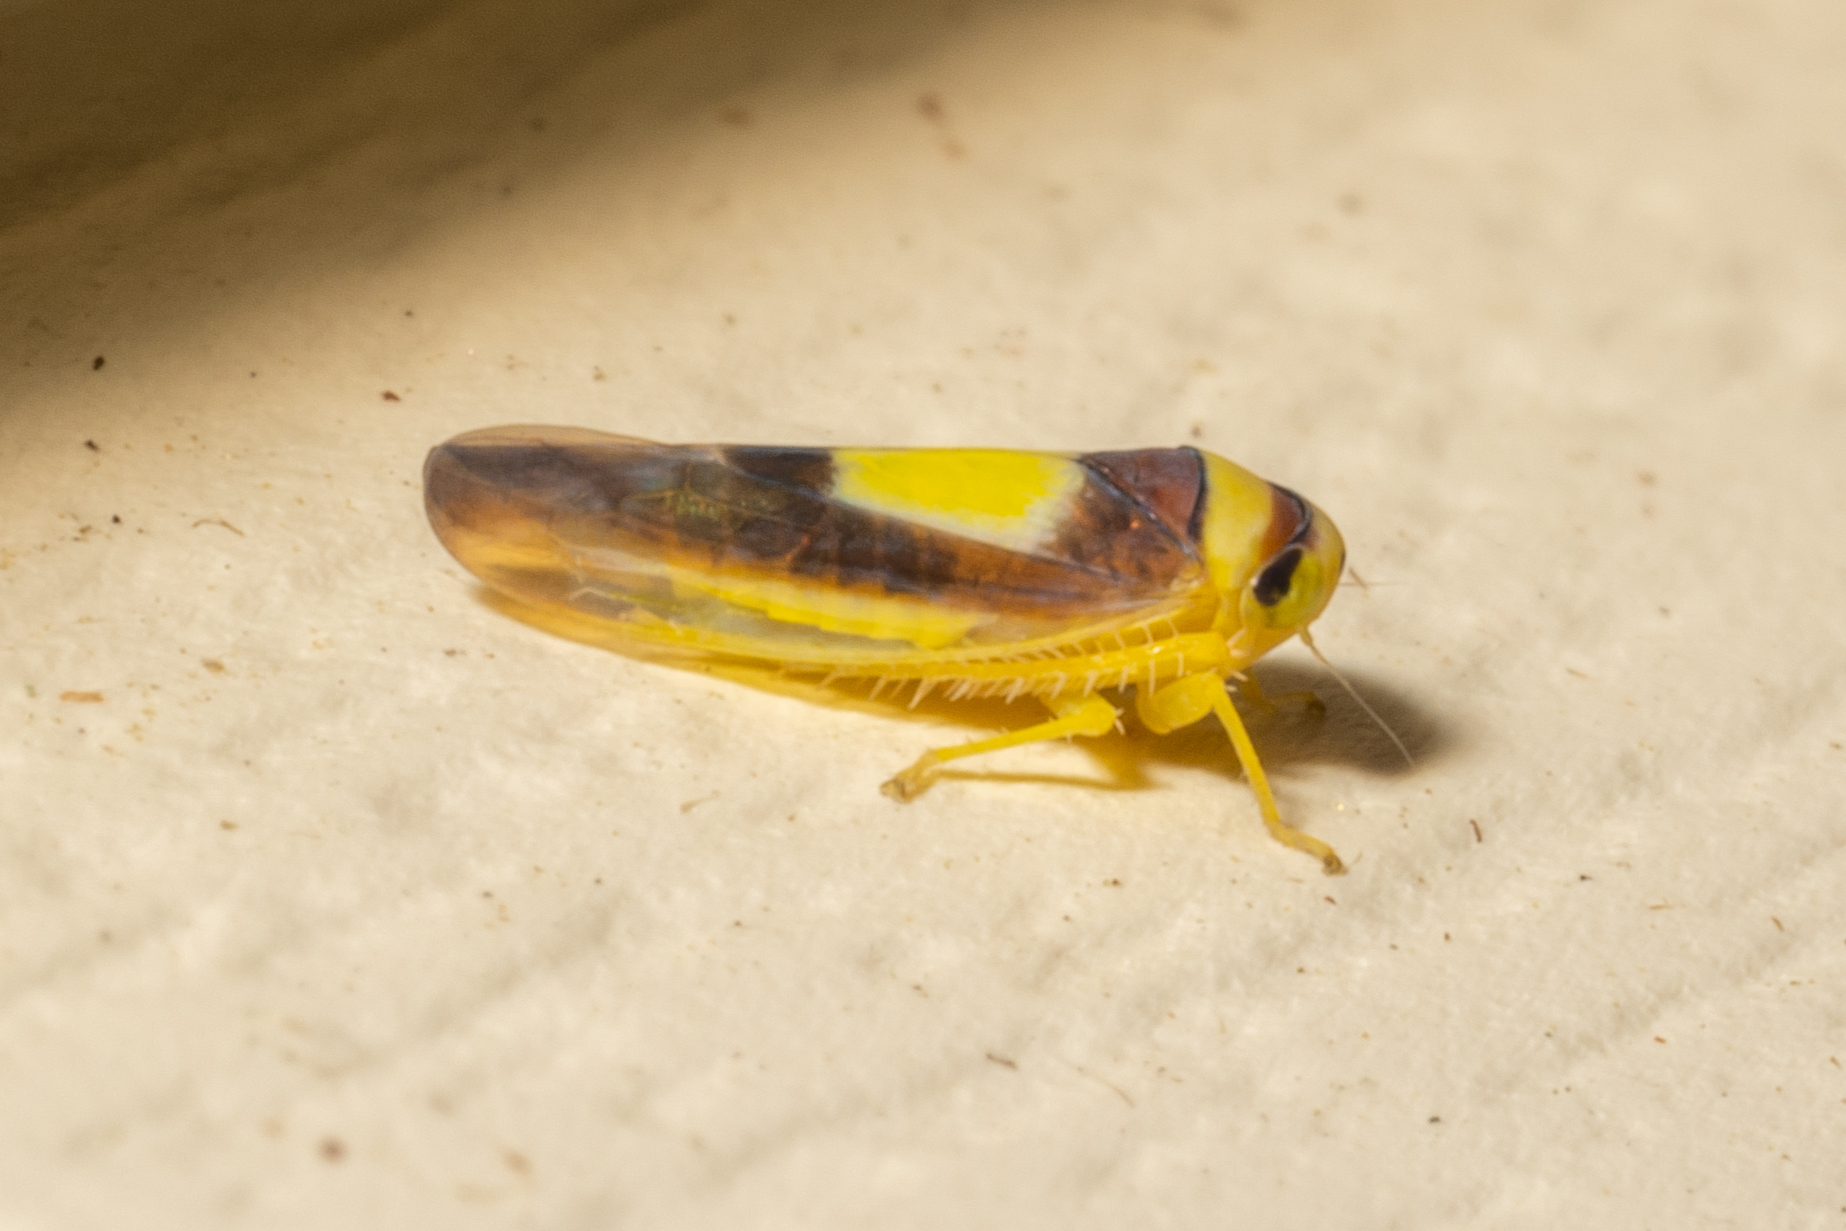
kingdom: Animalia
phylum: Arthropoda
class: Insecta
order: Hemiptera
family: Cicadellidae
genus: Colladonus
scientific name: Colladonus clitellarius
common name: The saddleback leafhopper
